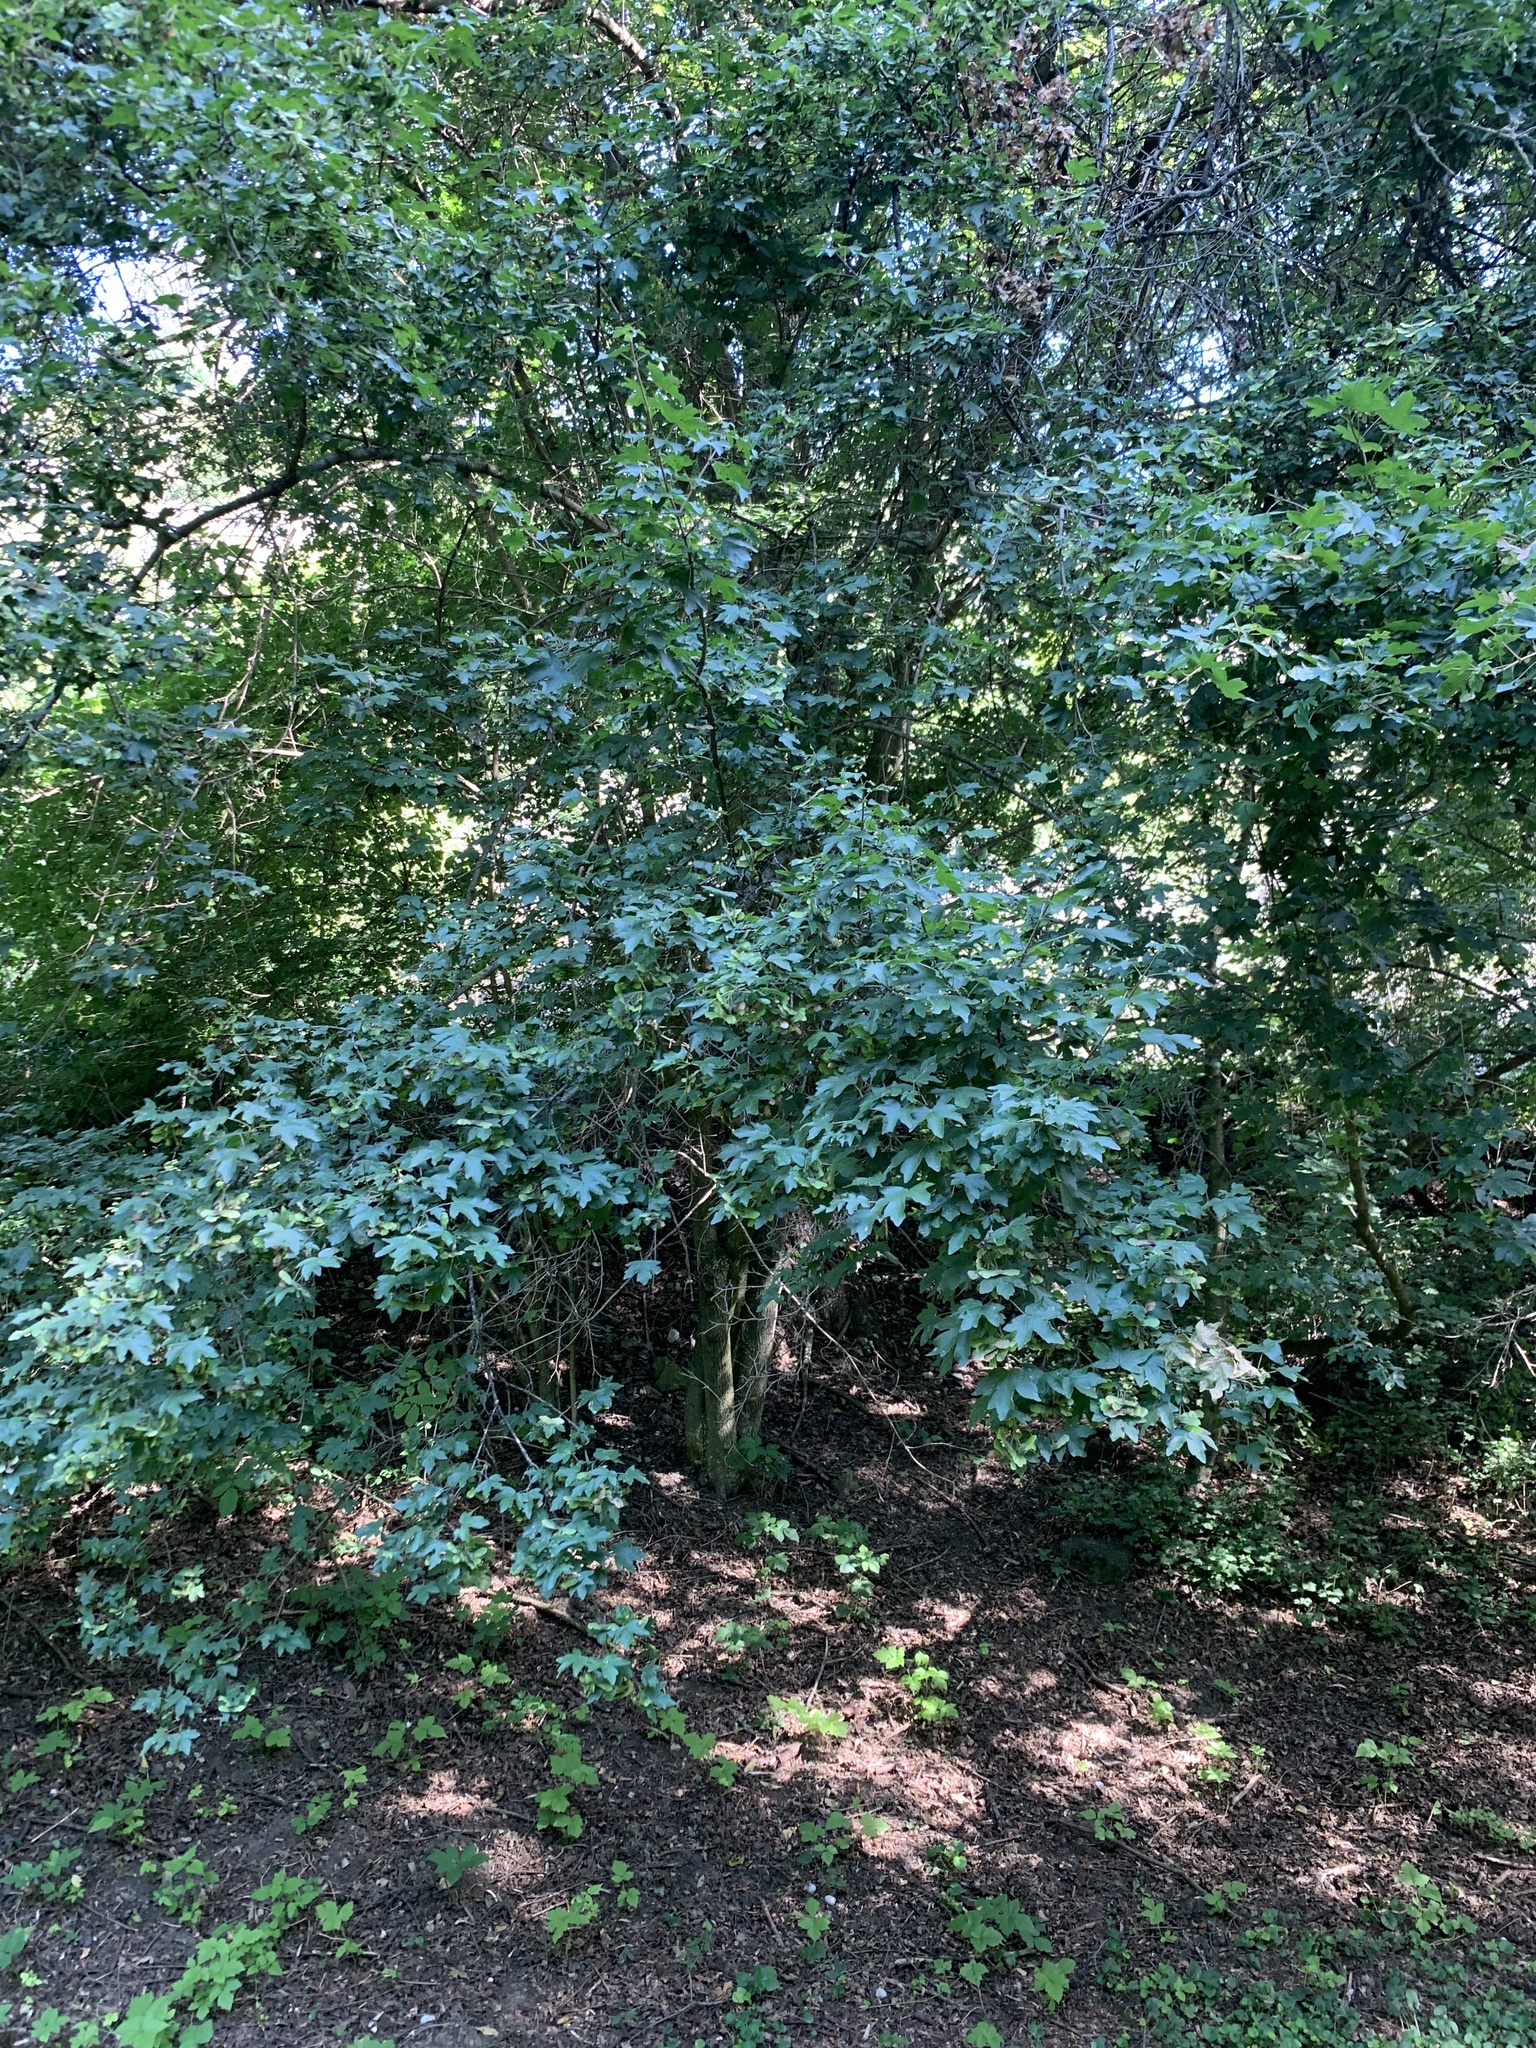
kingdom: Plantae
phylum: Tracheophyta
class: Magnoliopsida
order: Sapindales
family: Sapindaceae
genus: Acer
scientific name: Acer campestre
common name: Field maple
